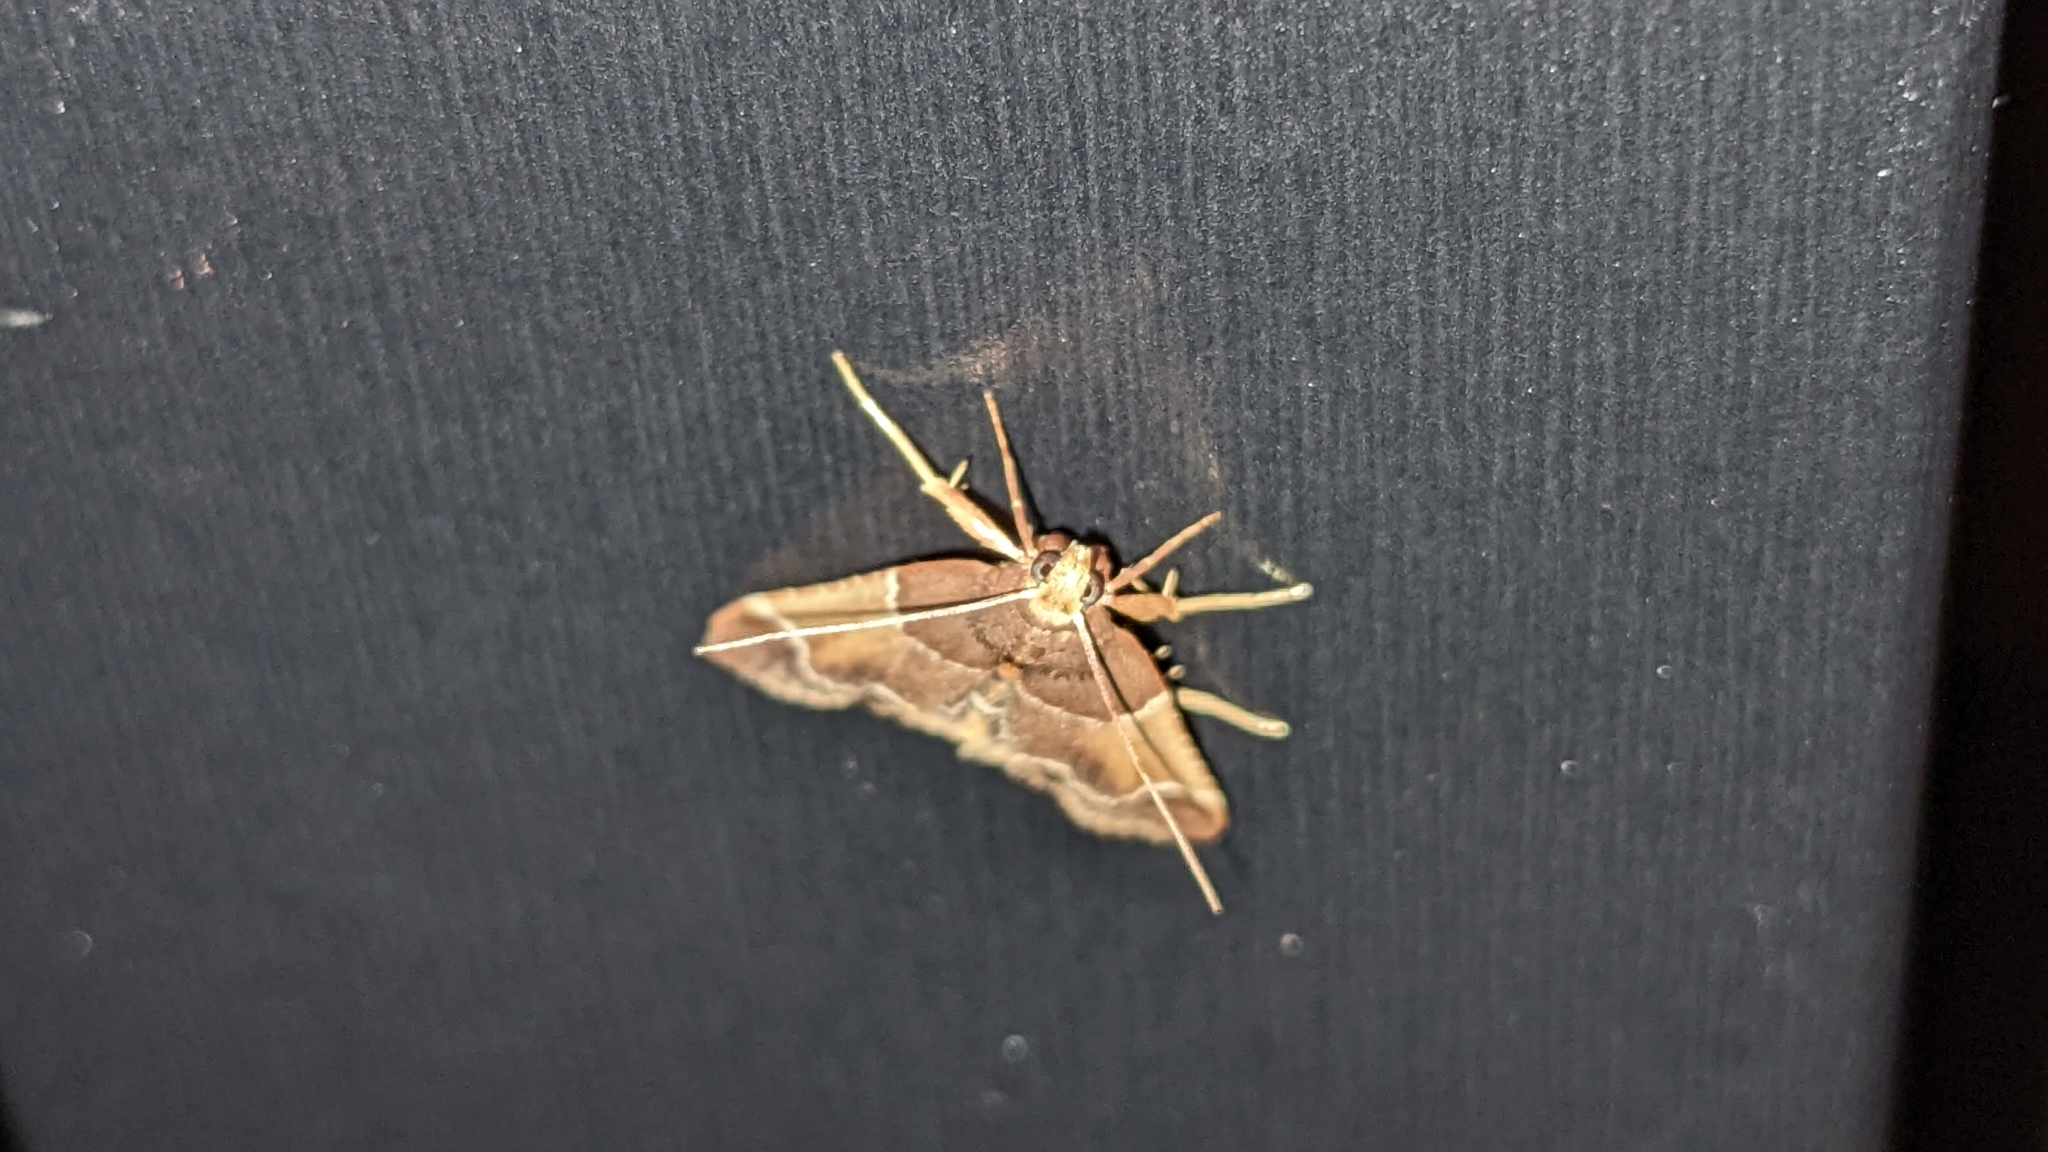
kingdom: Animalia
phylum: Arthropoda
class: Insecta
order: Lepidoptera
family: Pyralidae
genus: Pyralis
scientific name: Pyralis farinalis
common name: Meal moth
